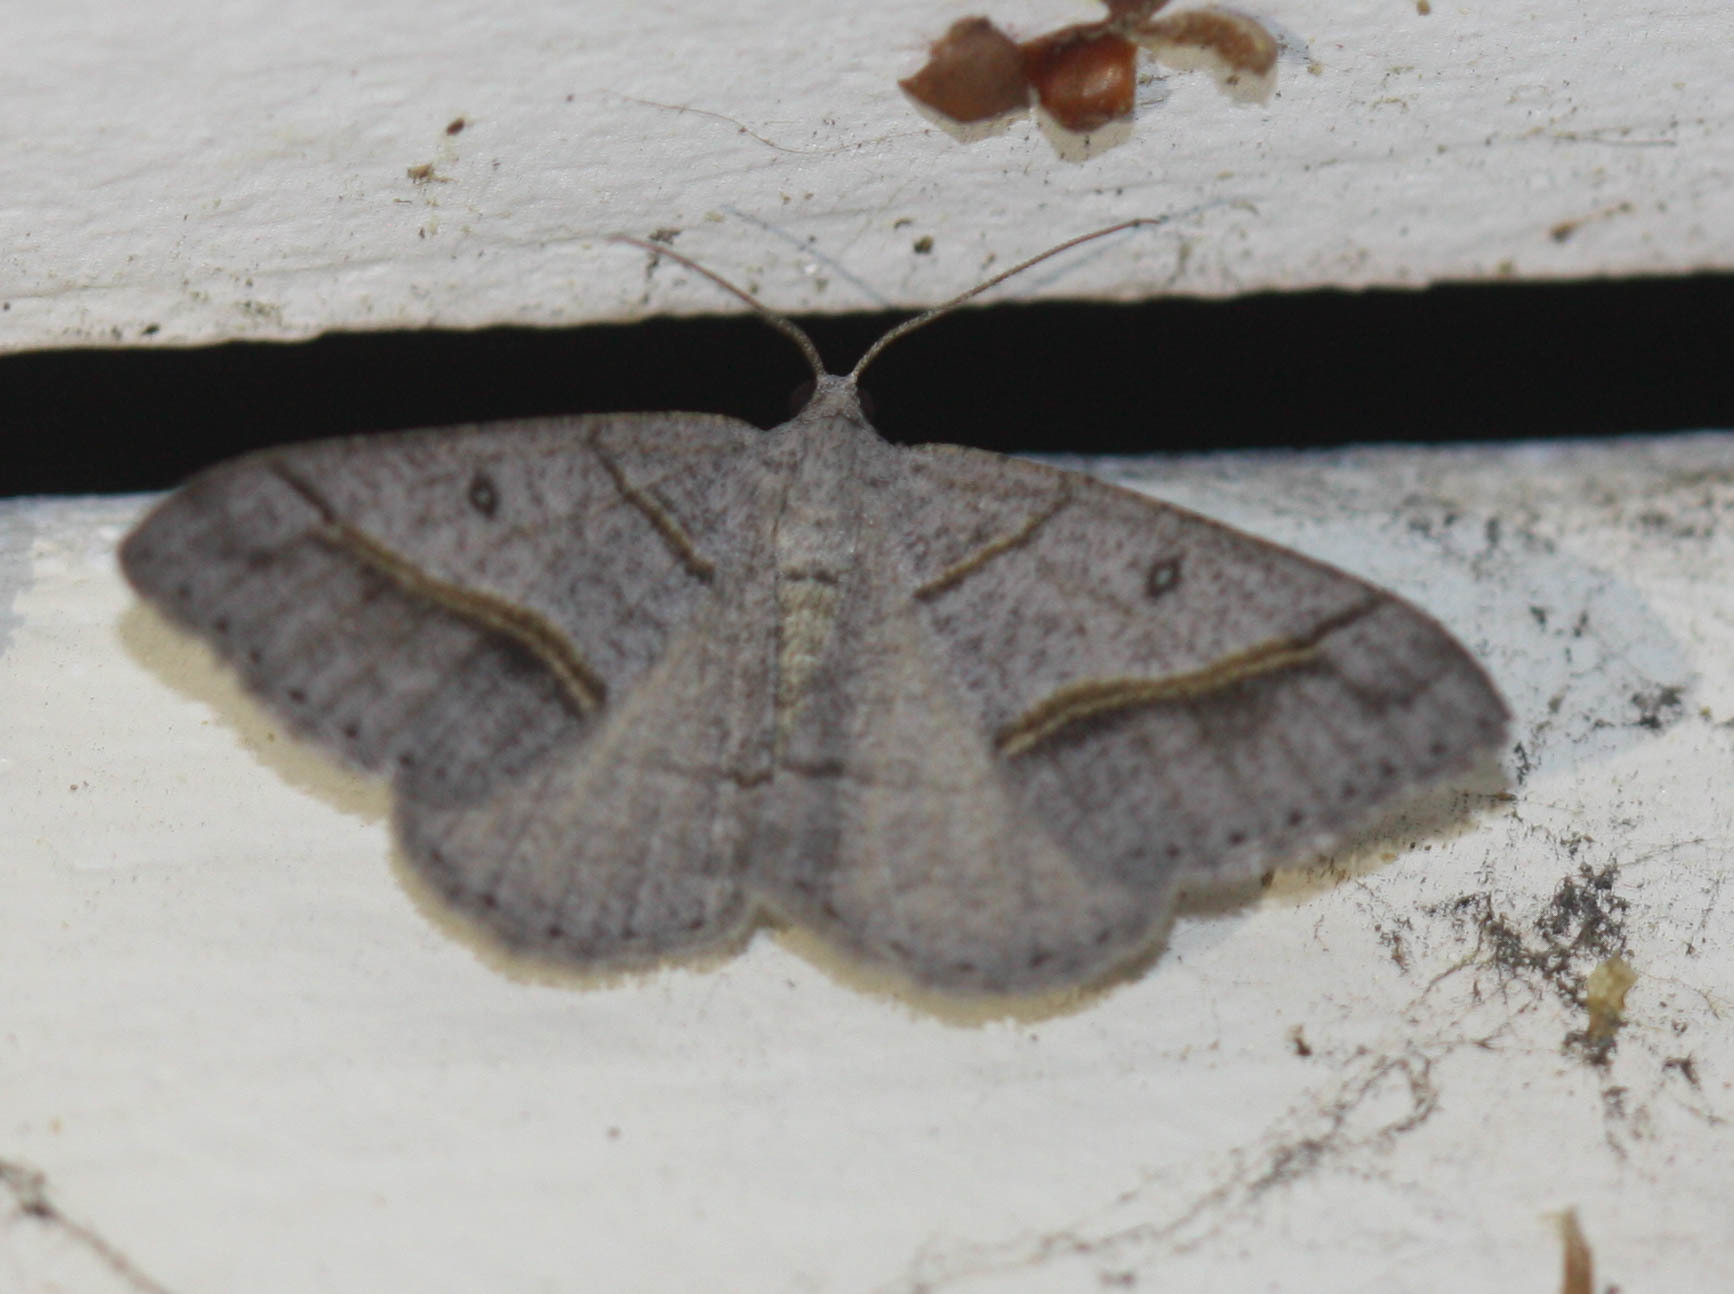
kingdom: Animalia
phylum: Arthropoda
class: Insecta
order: Lepidoptera
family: Geometridae
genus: Digrammia
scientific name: Digrammia neptaria
